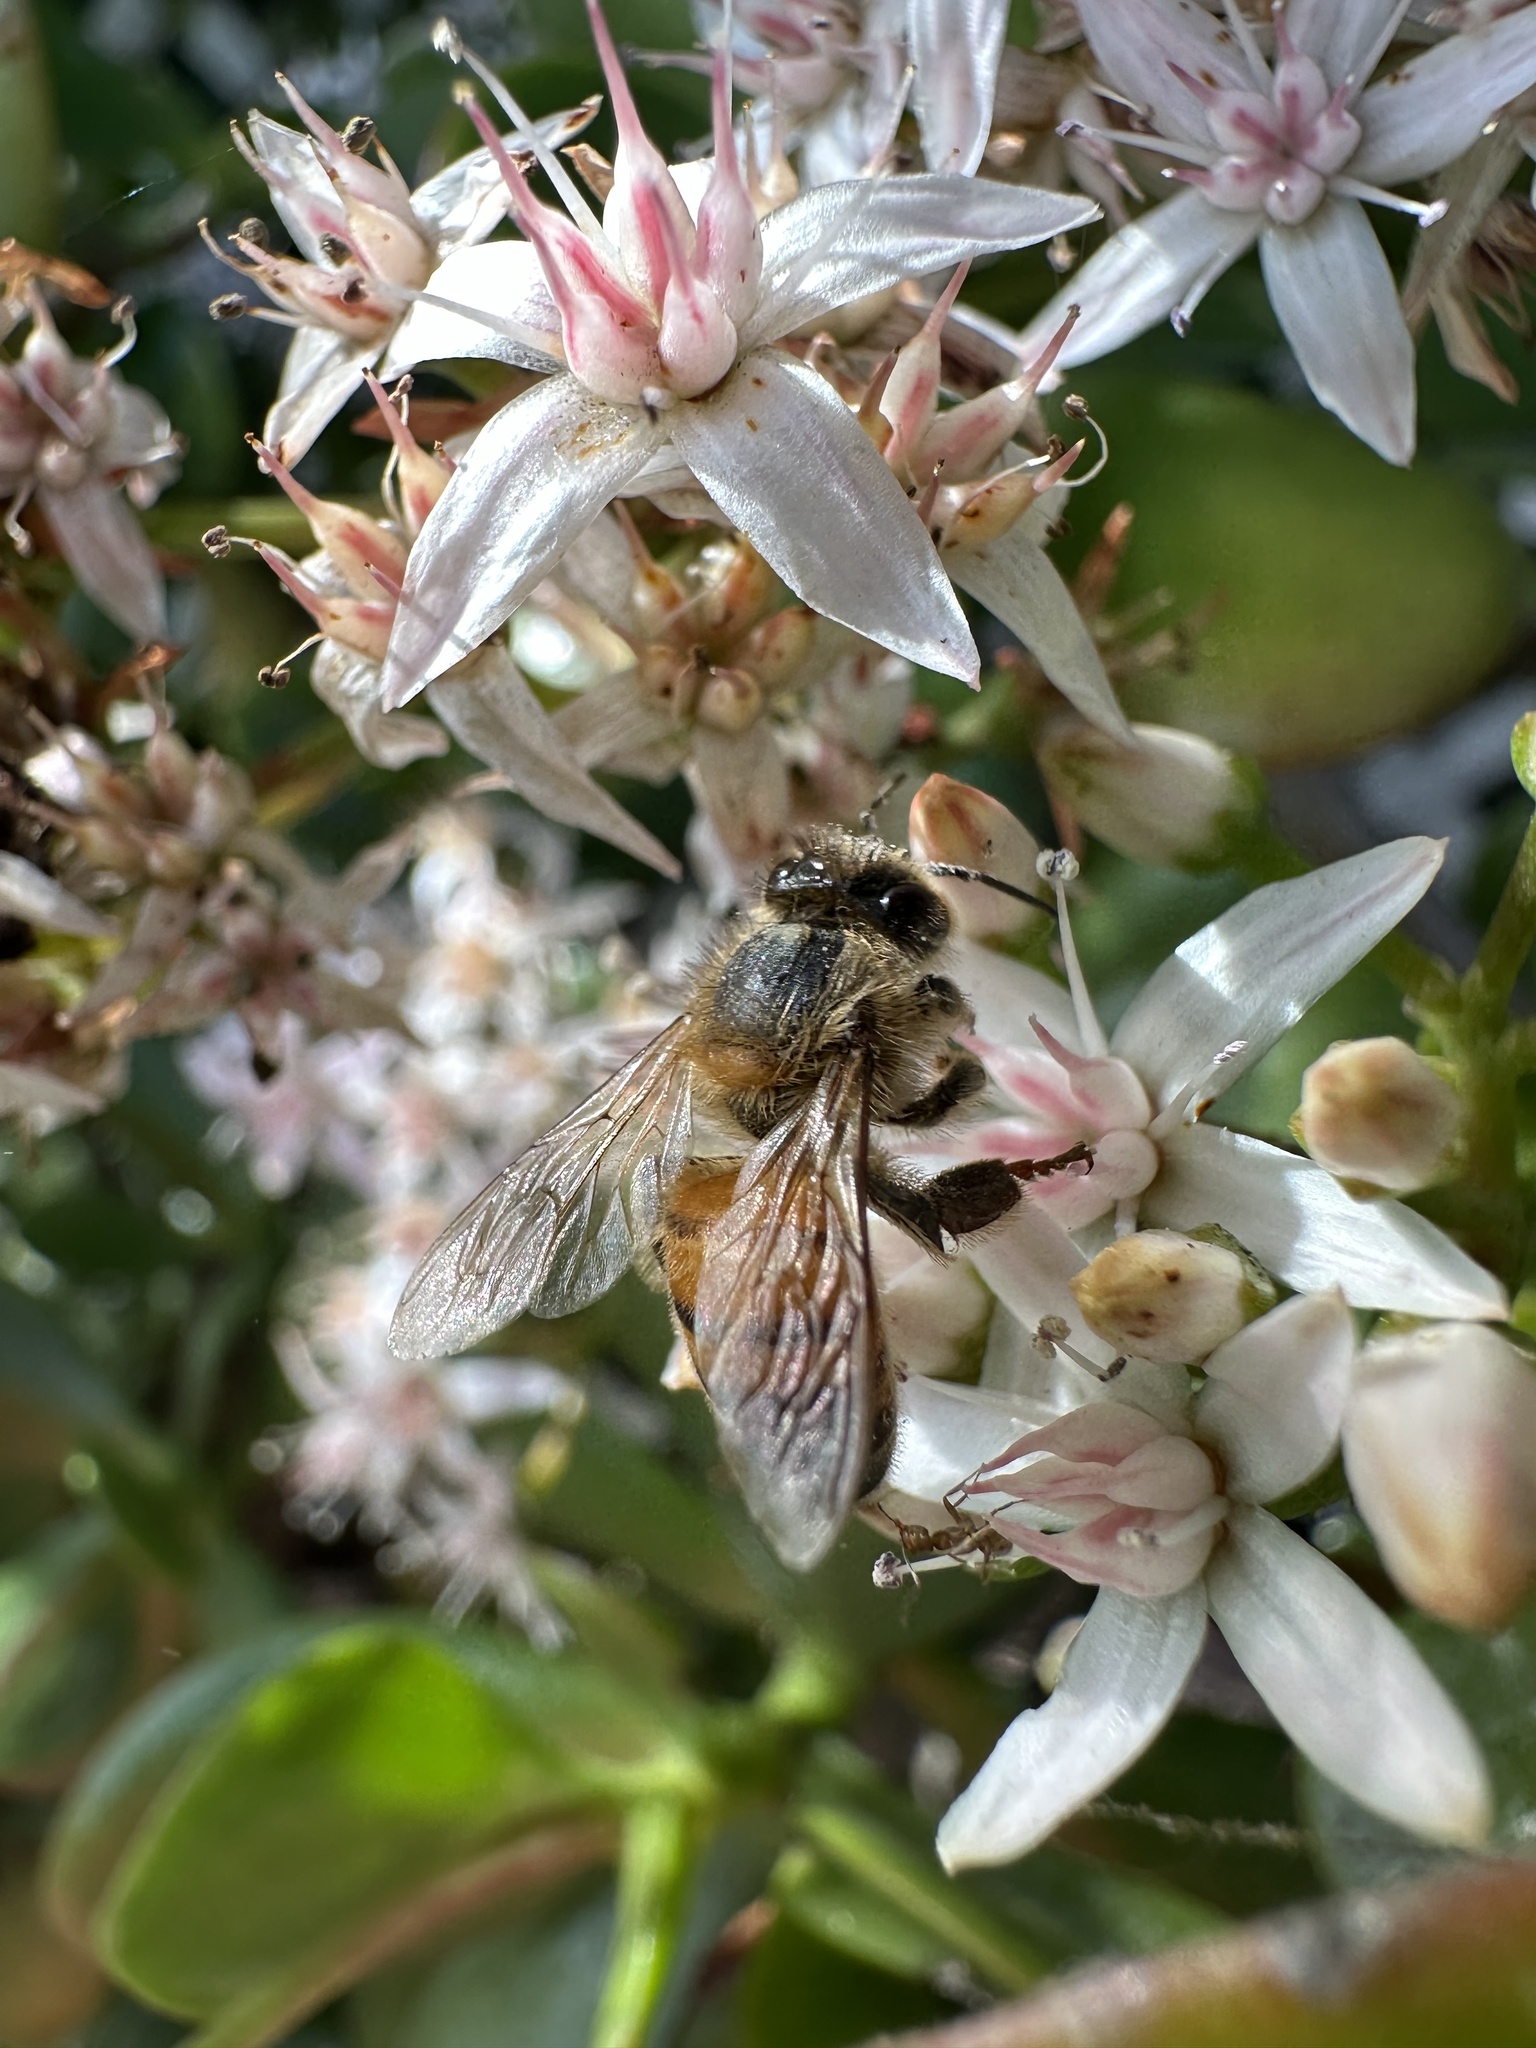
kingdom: Animalia
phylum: Arthropoda
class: Insecta
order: Hymenoptera
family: Apidae
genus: Apis
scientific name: Apis mellifera
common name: Honey bee
